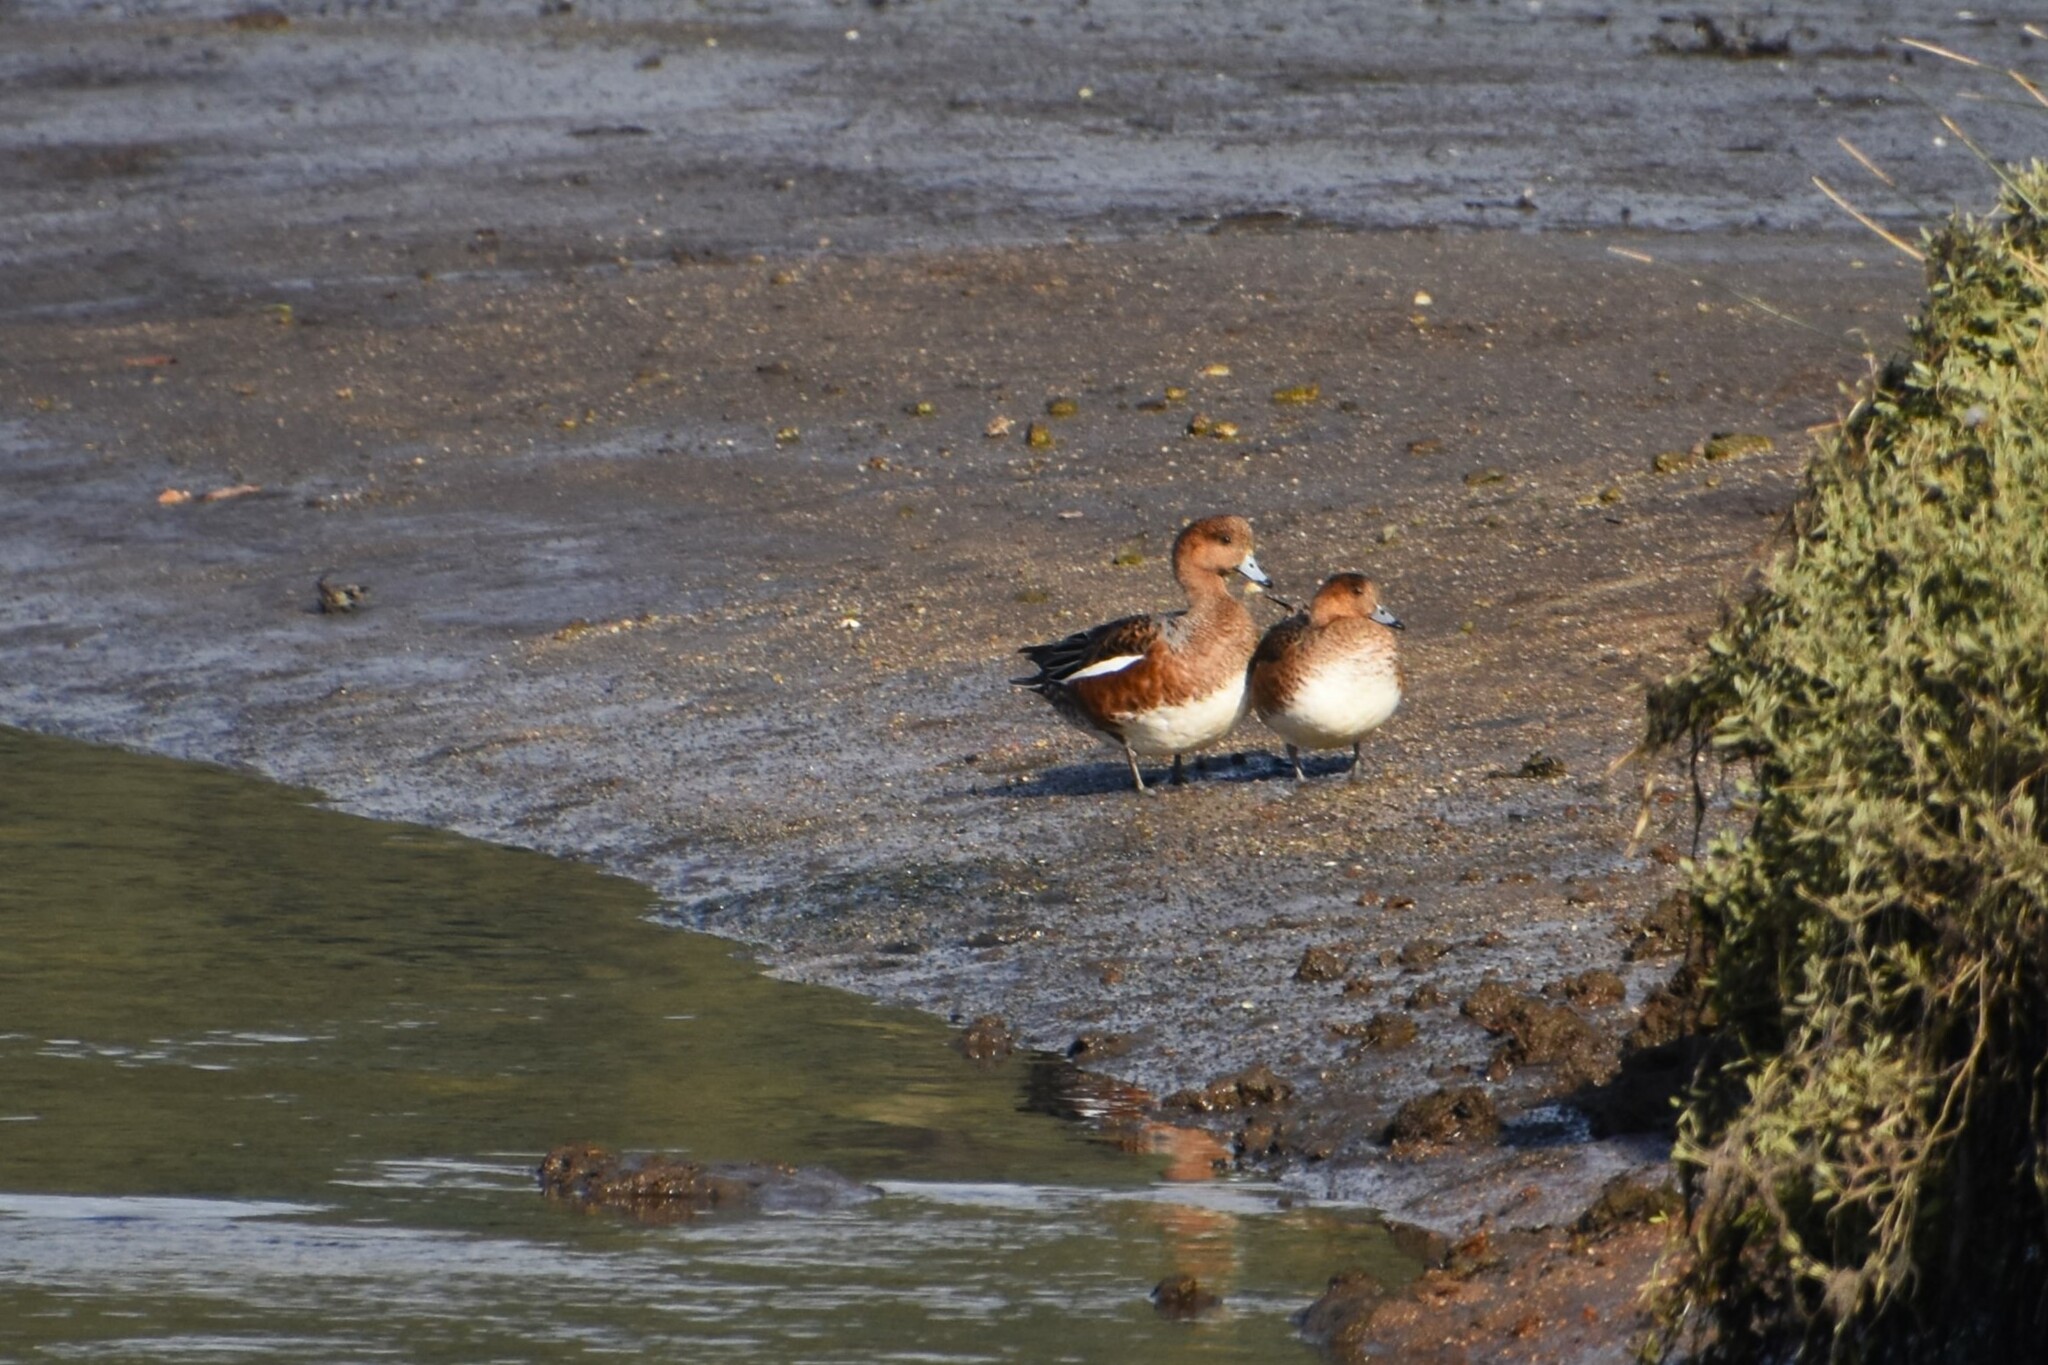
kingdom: Animalia
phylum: Chordata
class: Aves
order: Anseriformes
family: Anatidae
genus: Mareca
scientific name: Mareca penelope
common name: Eurasian wigeon
